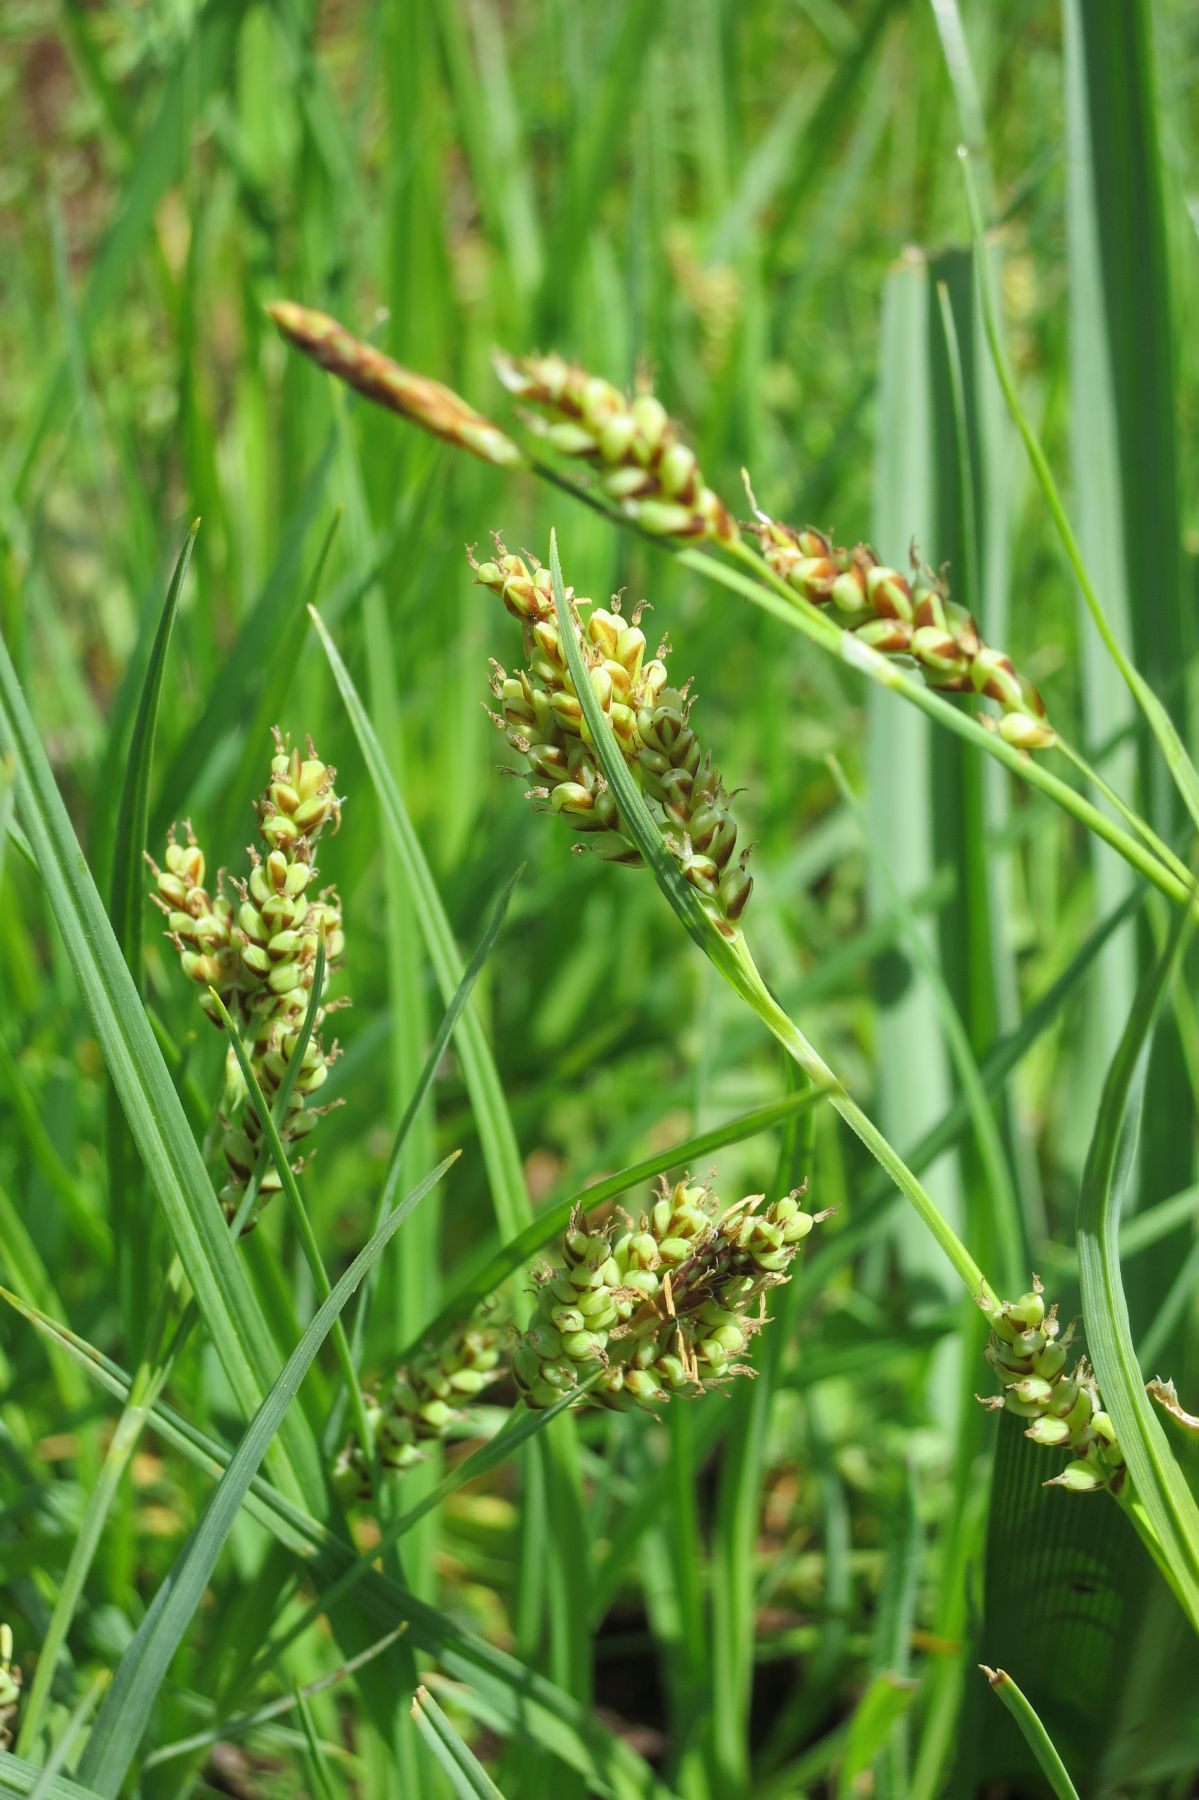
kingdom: Plantae
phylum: Tracheophyta
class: Liliopsida
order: Poales
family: Cyperaceae
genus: Carex
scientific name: Carex hassei
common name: Hasse's sedge
